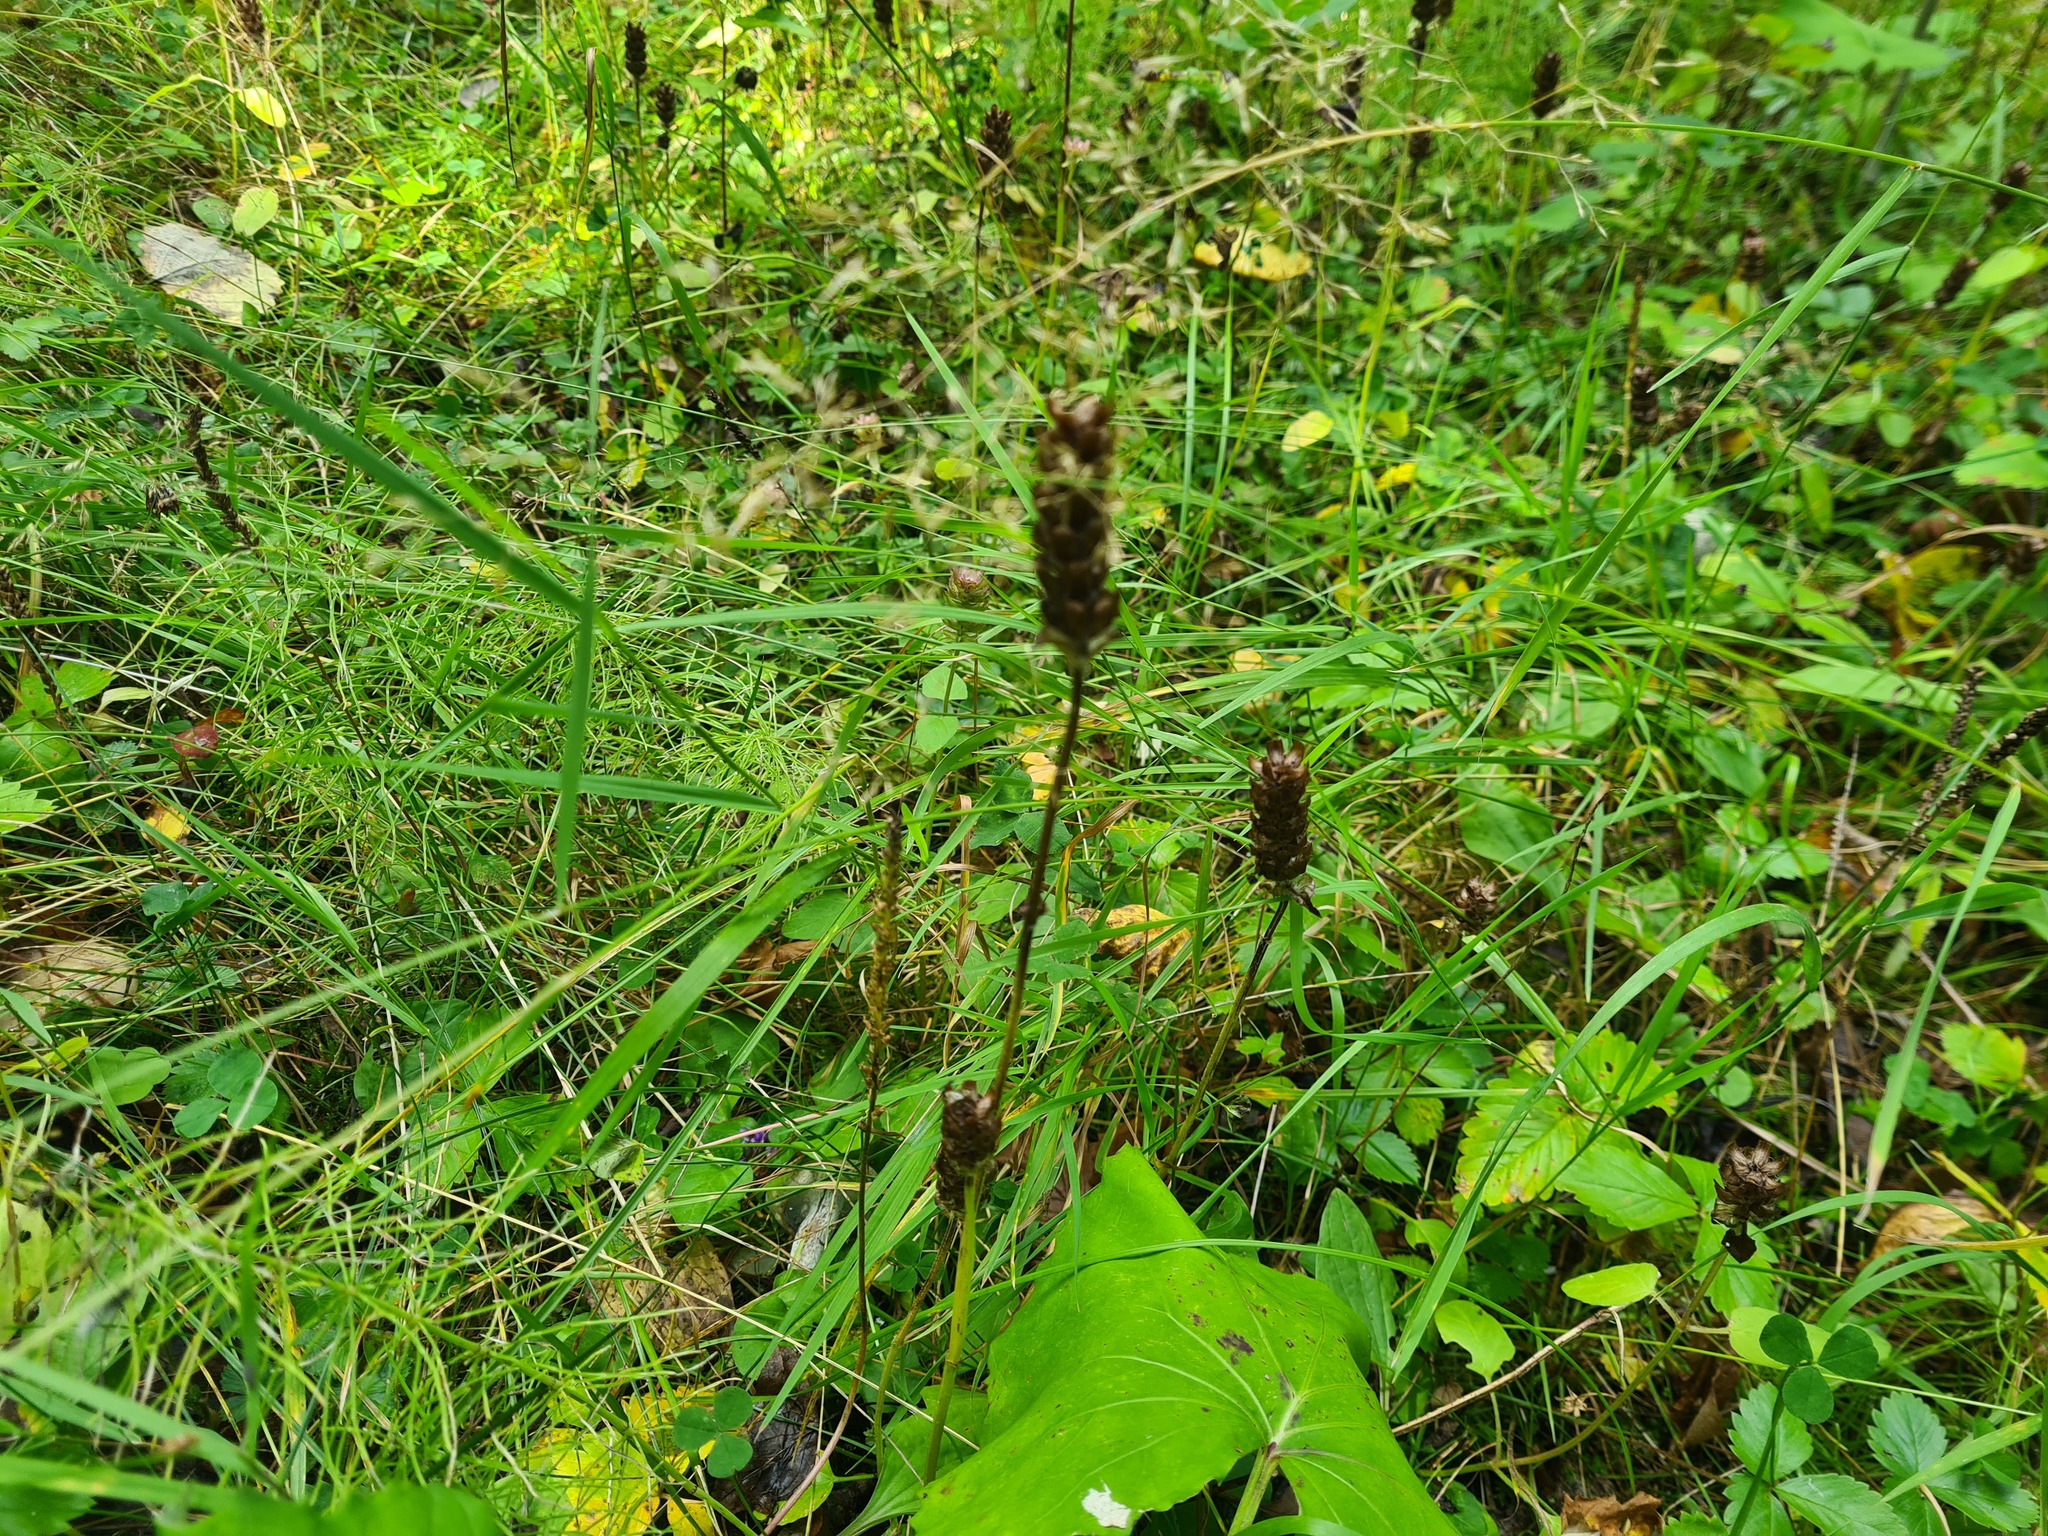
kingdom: Plantae
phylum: Tracheophyta
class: Magnoliopsida
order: Lamiales
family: Lamiaceae
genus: Prunella
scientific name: Prunella vulgaris
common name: Heal-all
